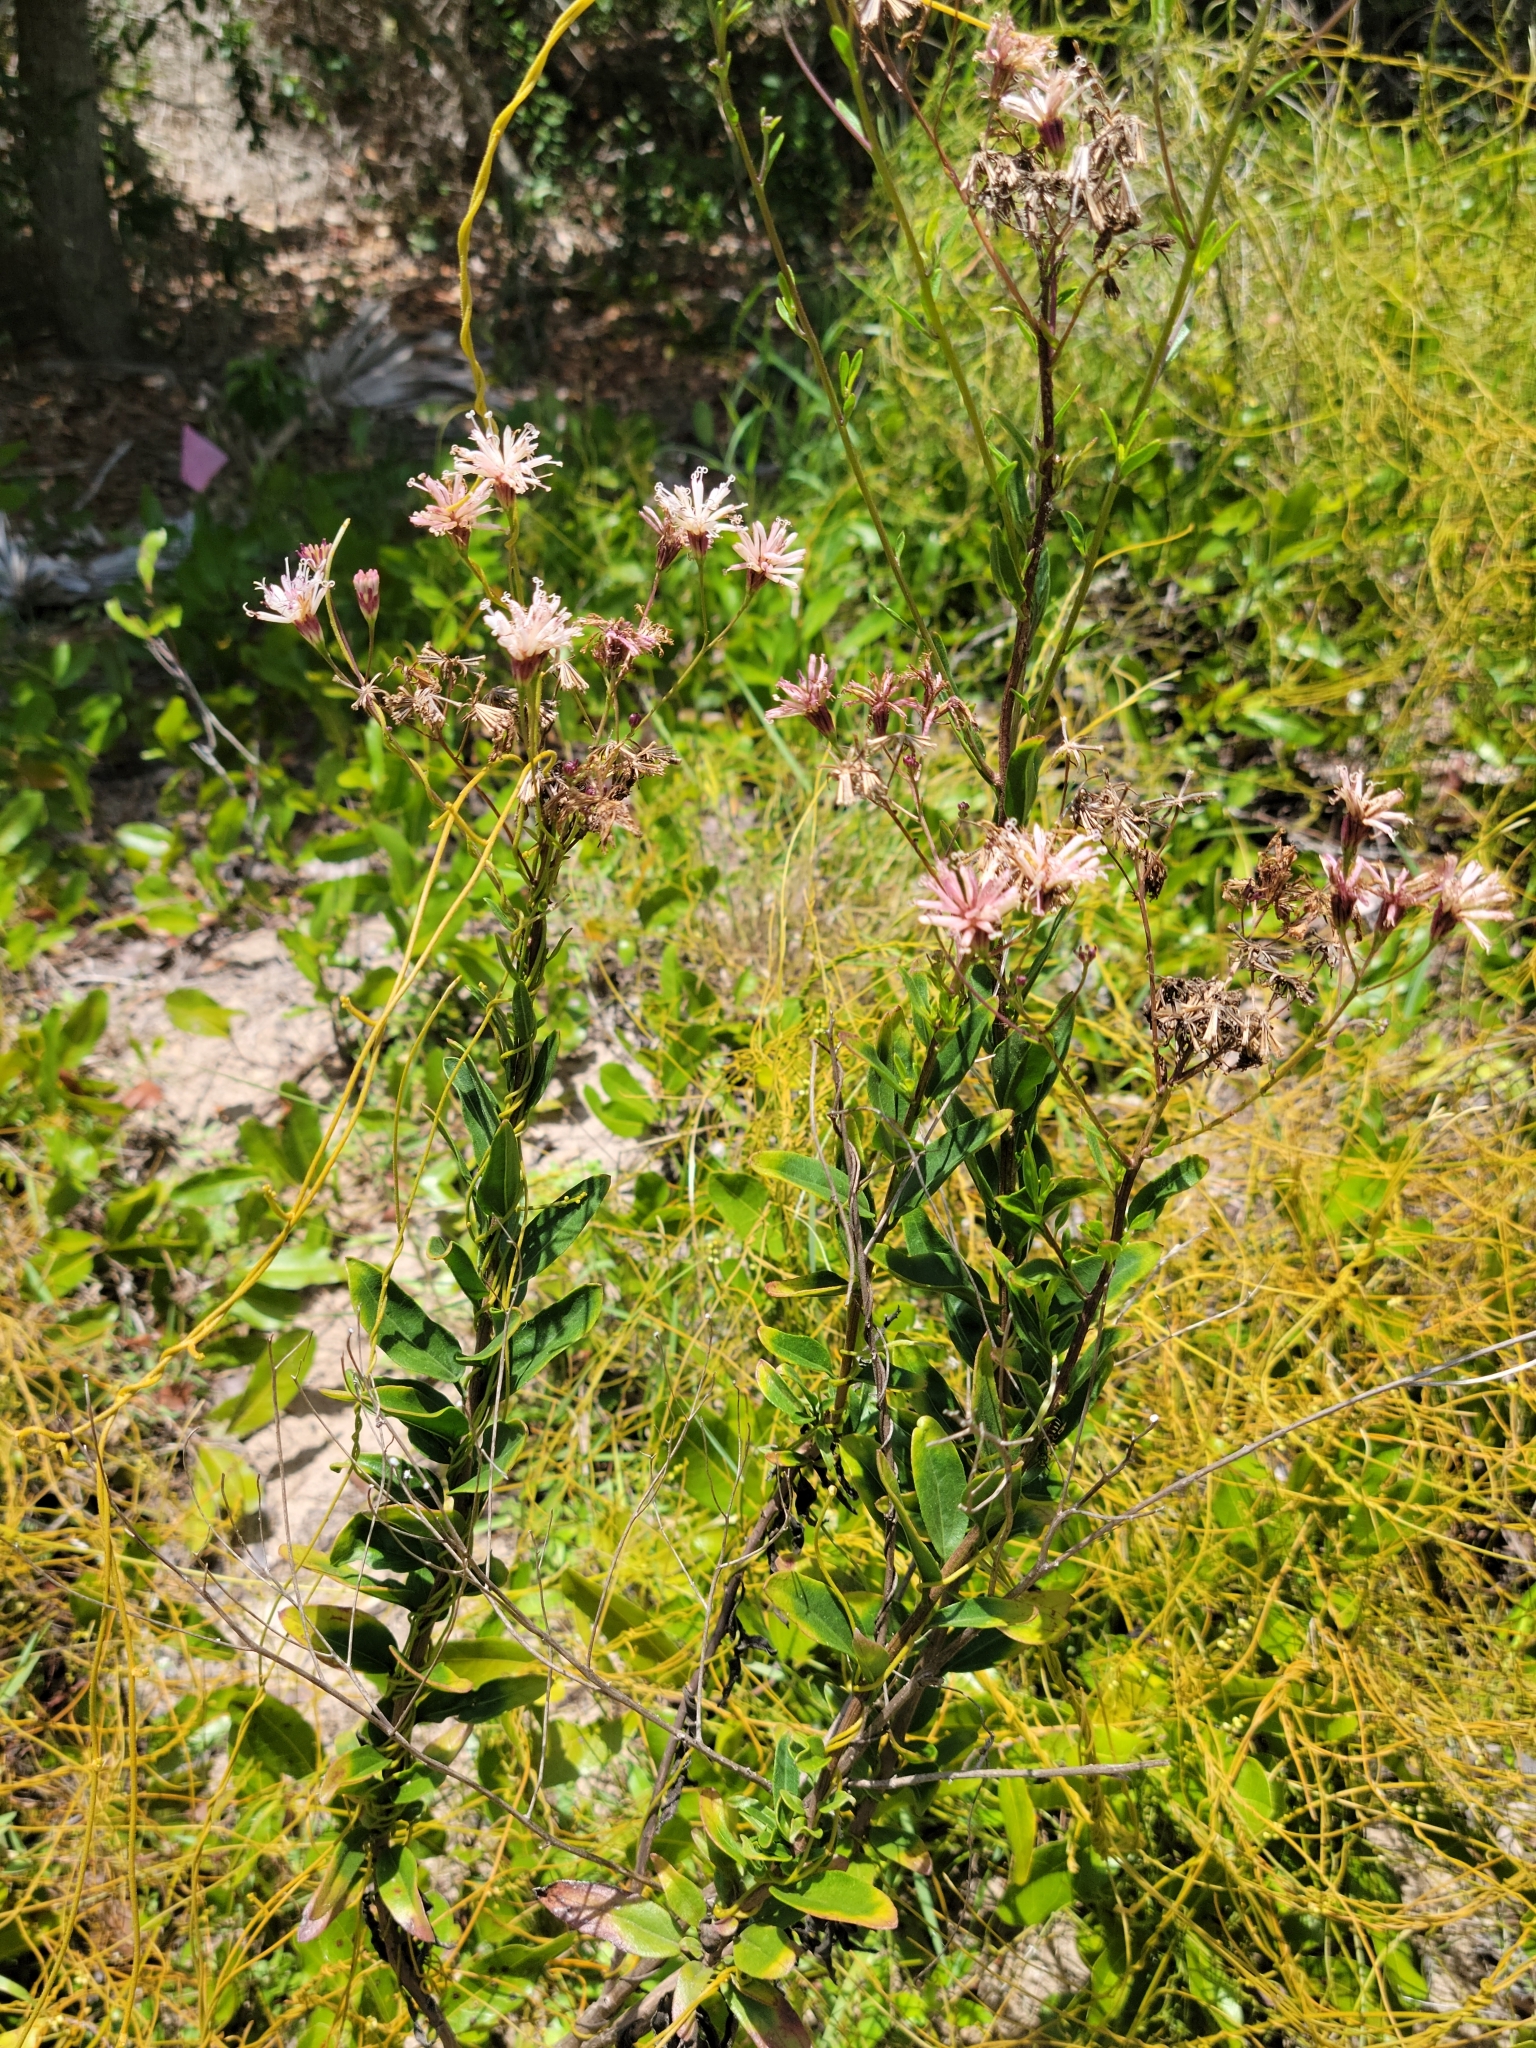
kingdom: Plantae
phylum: Tracheophyta
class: Magnoliopsida
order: Asterales
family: Asteraceae
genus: Palafoxia
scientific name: Palafoxia feayi
